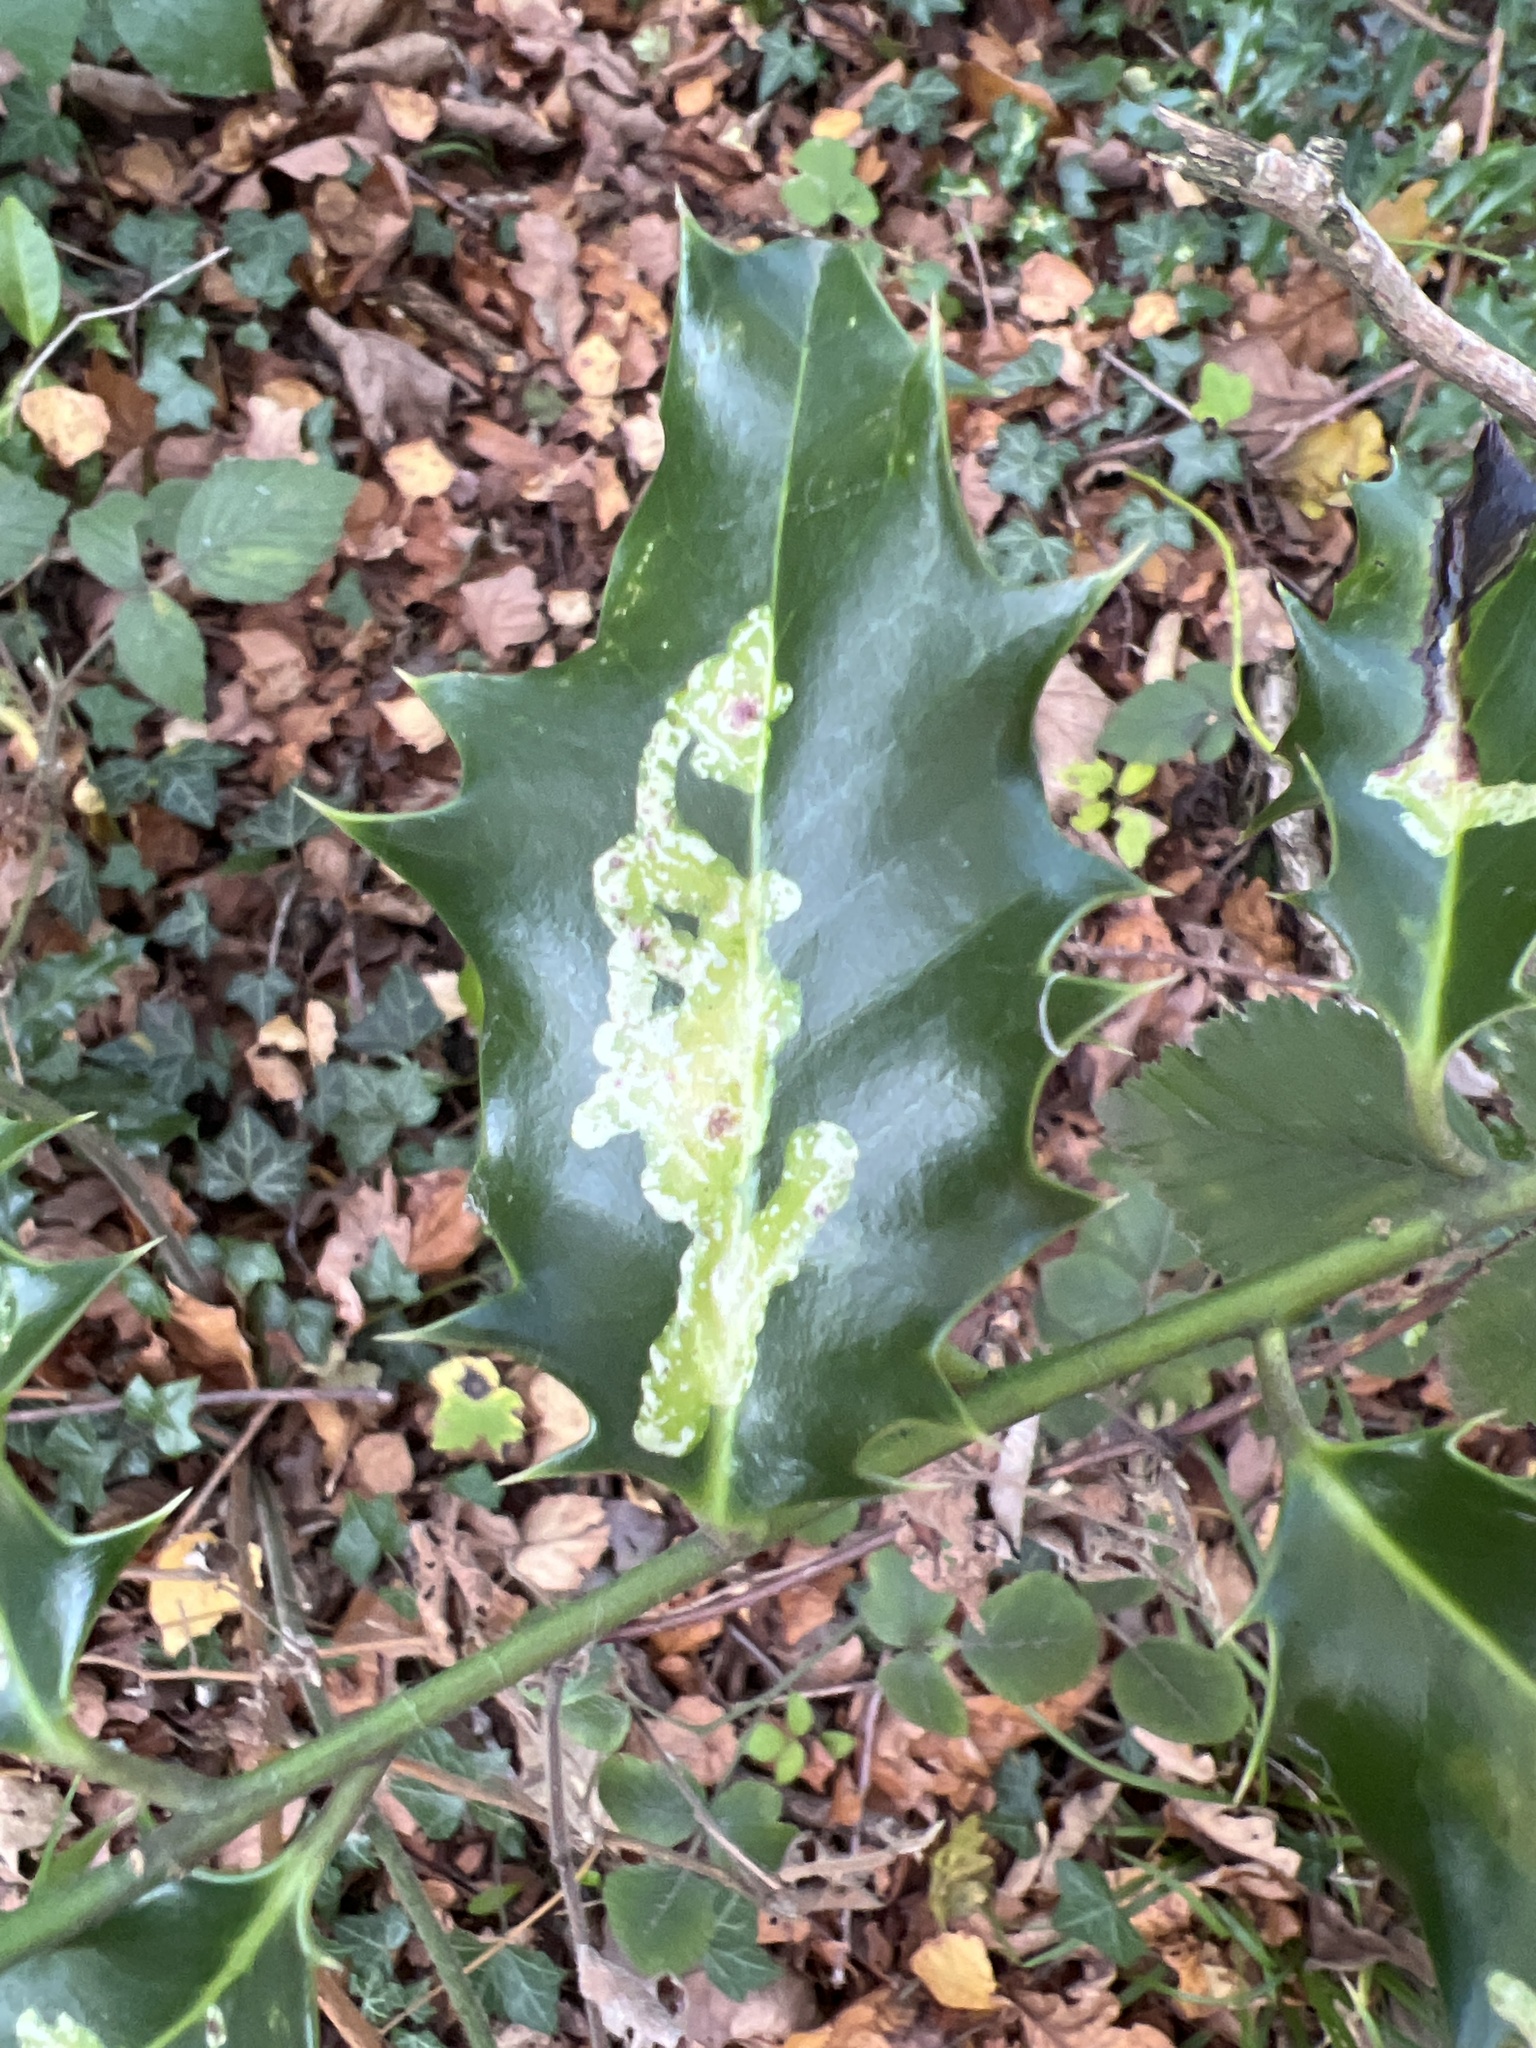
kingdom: Animalia
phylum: Arthropoda
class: Insecta
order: Diptera
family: Agromyzidae
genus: Phytomyza
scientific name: Phytomyza ilicis
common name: Holly leafminer
